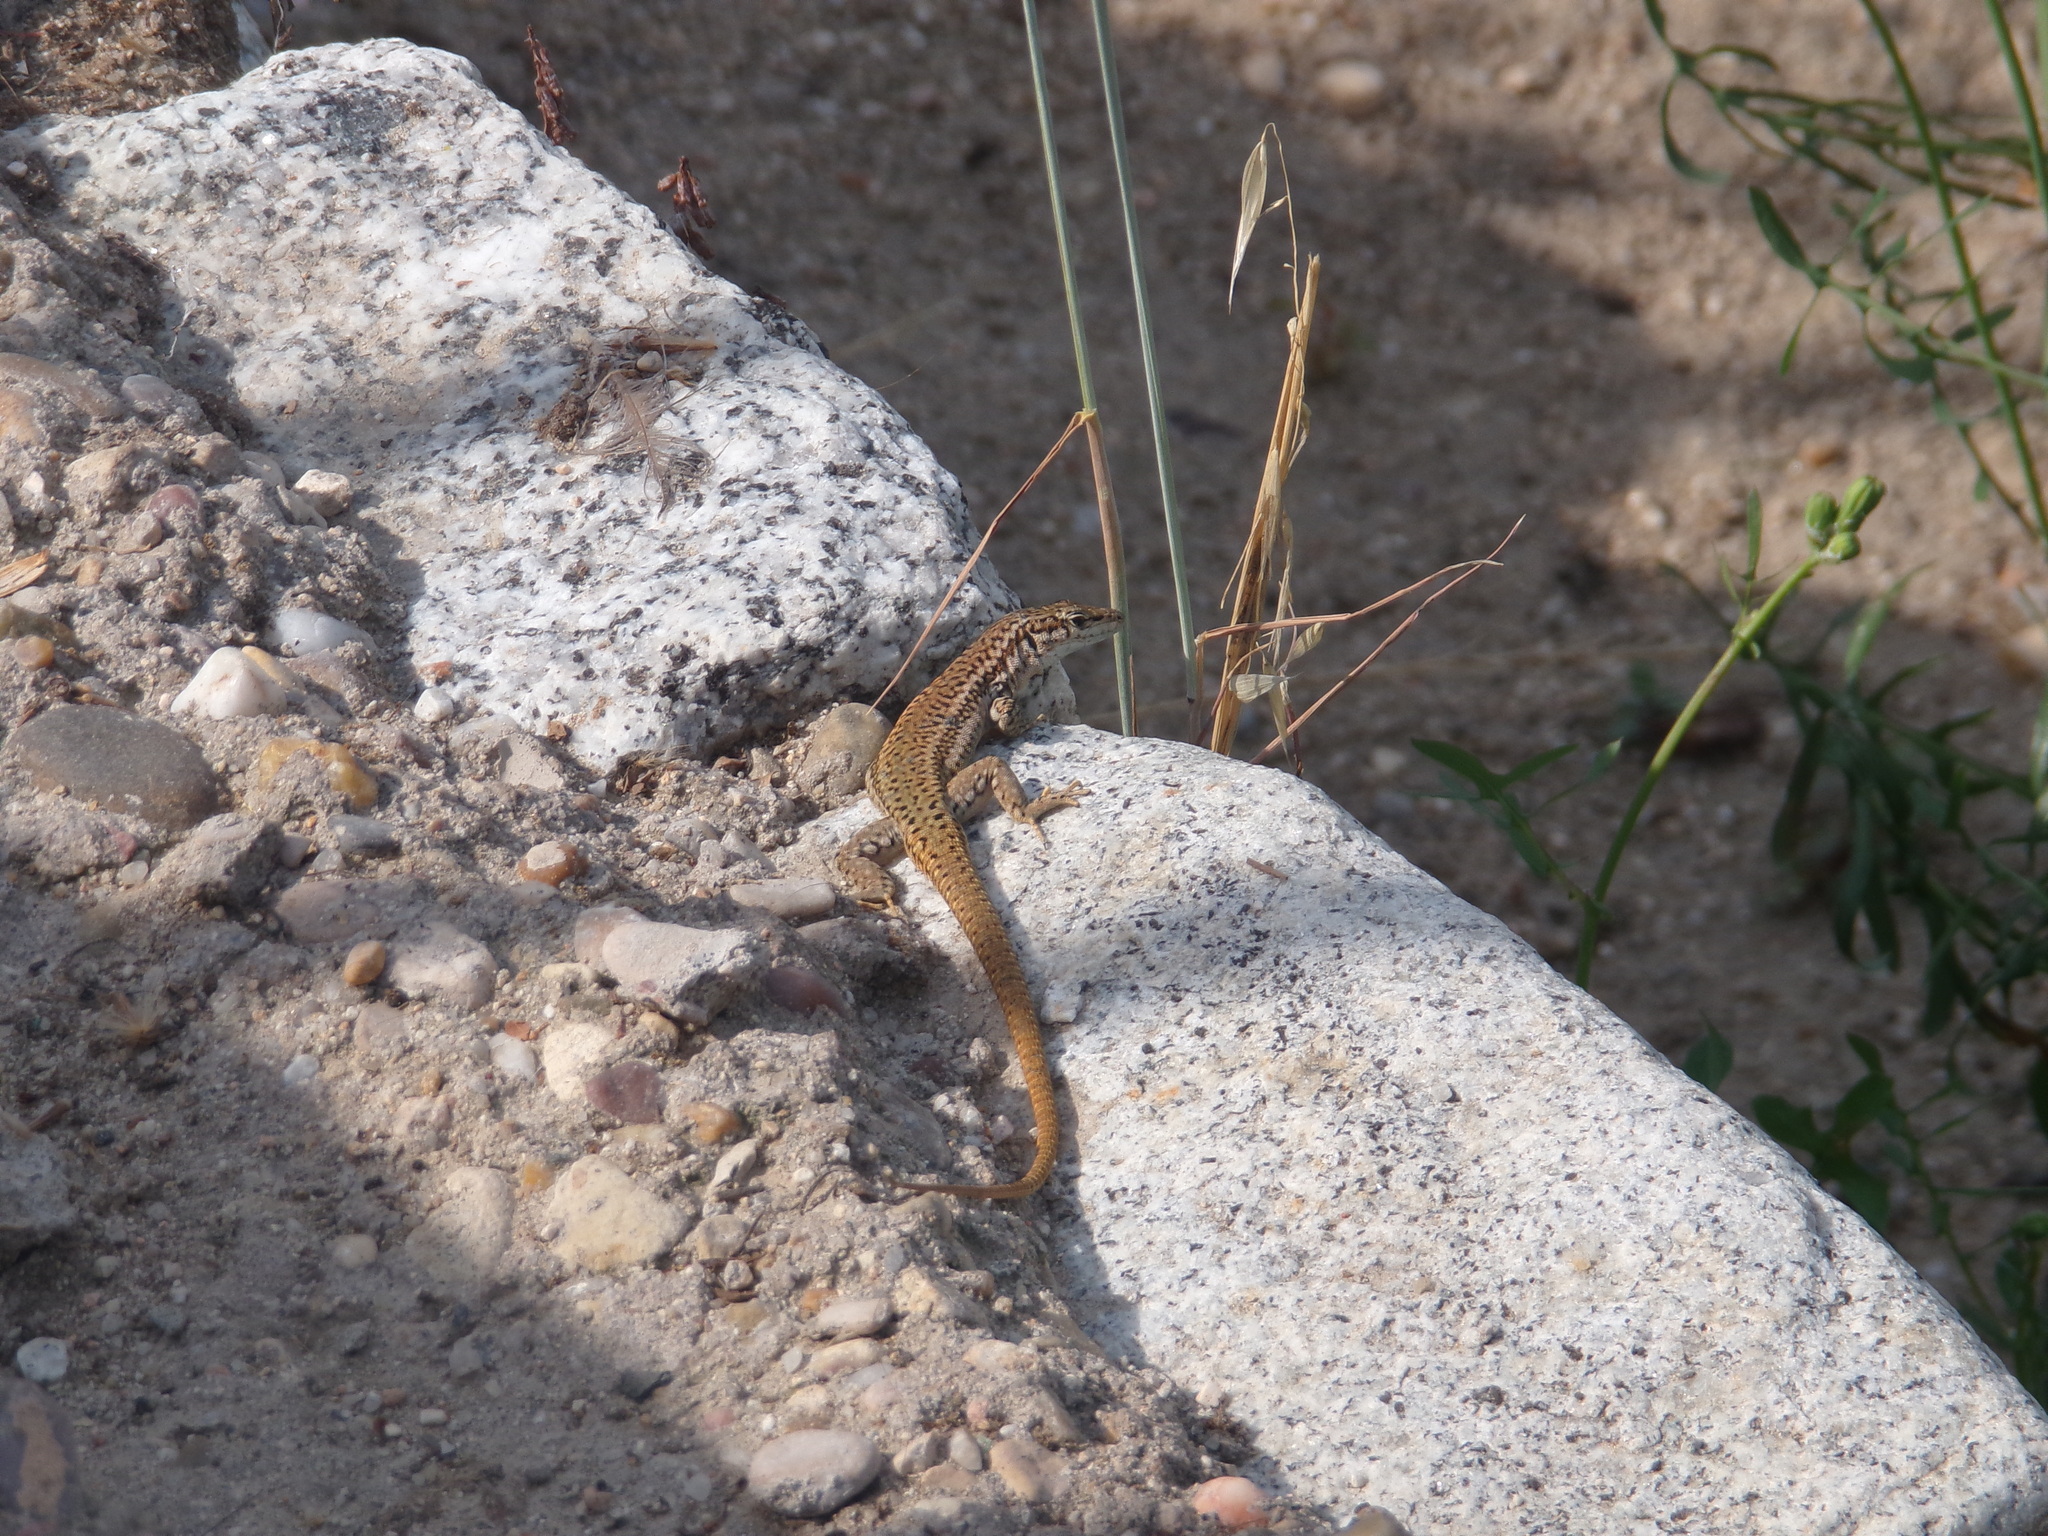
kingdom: Animalia
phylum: Chordata
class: Squamata
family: Lacertidae
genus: Podarcis
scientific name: Podarcis virescens
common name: Geniez’s wall lizard
